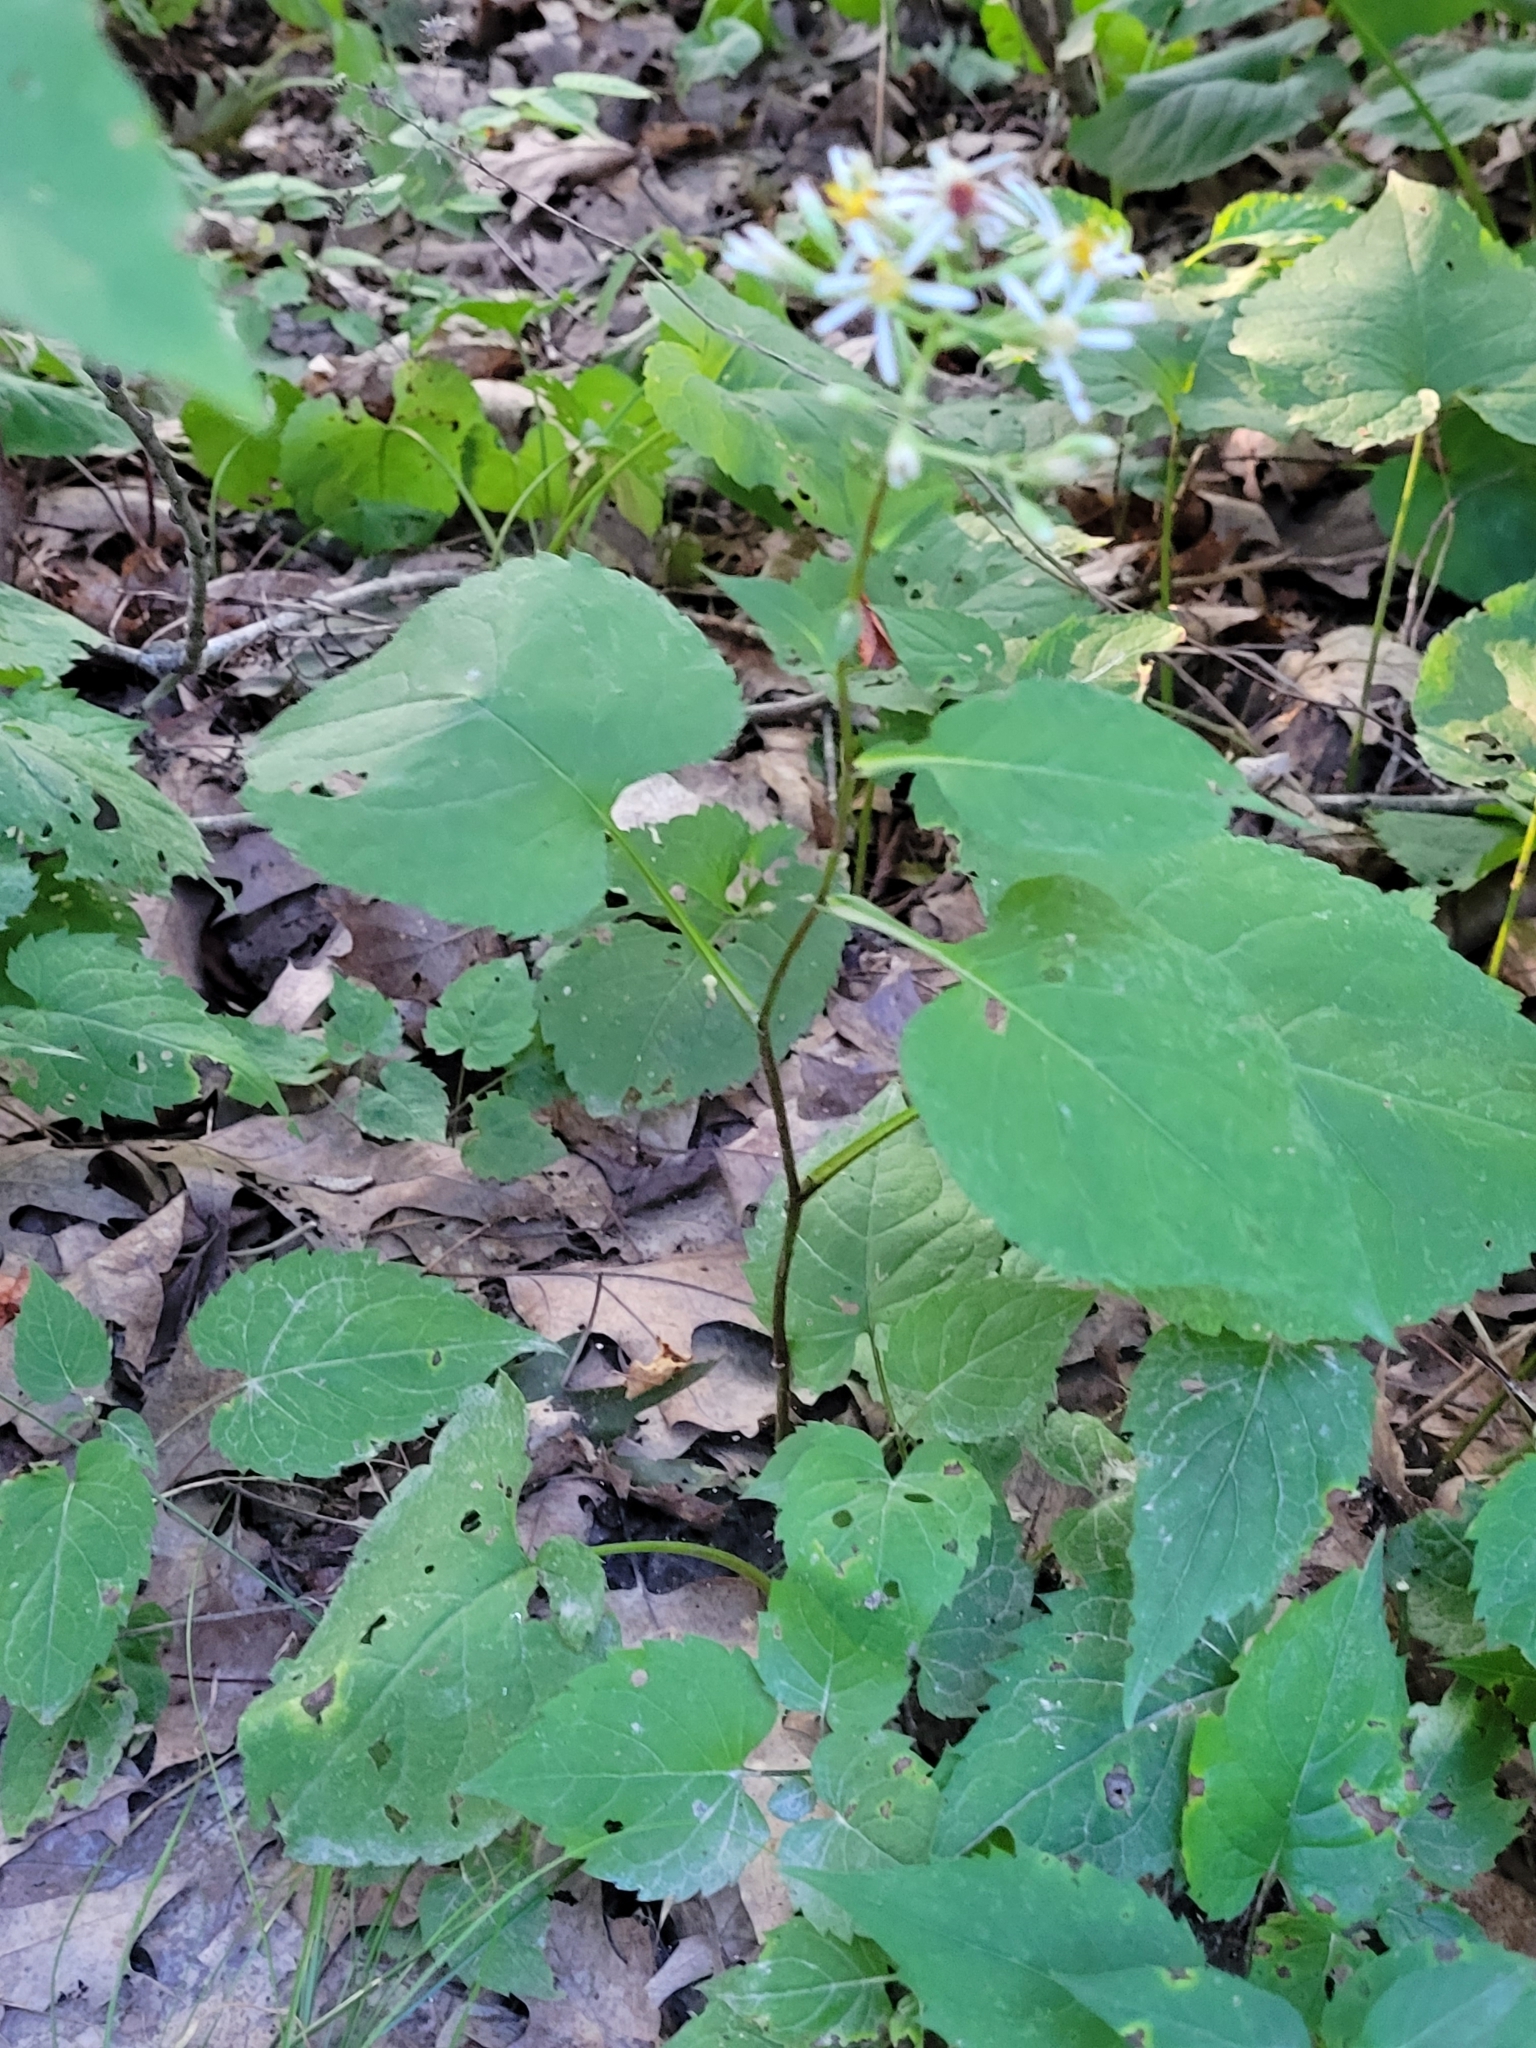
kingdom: Plantae
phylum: Tracheophyta
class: Magnoliopsida
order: Asterales
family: Asteraceae
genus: Eurybia
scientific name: Eurybia divaricata
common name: White wood aster
